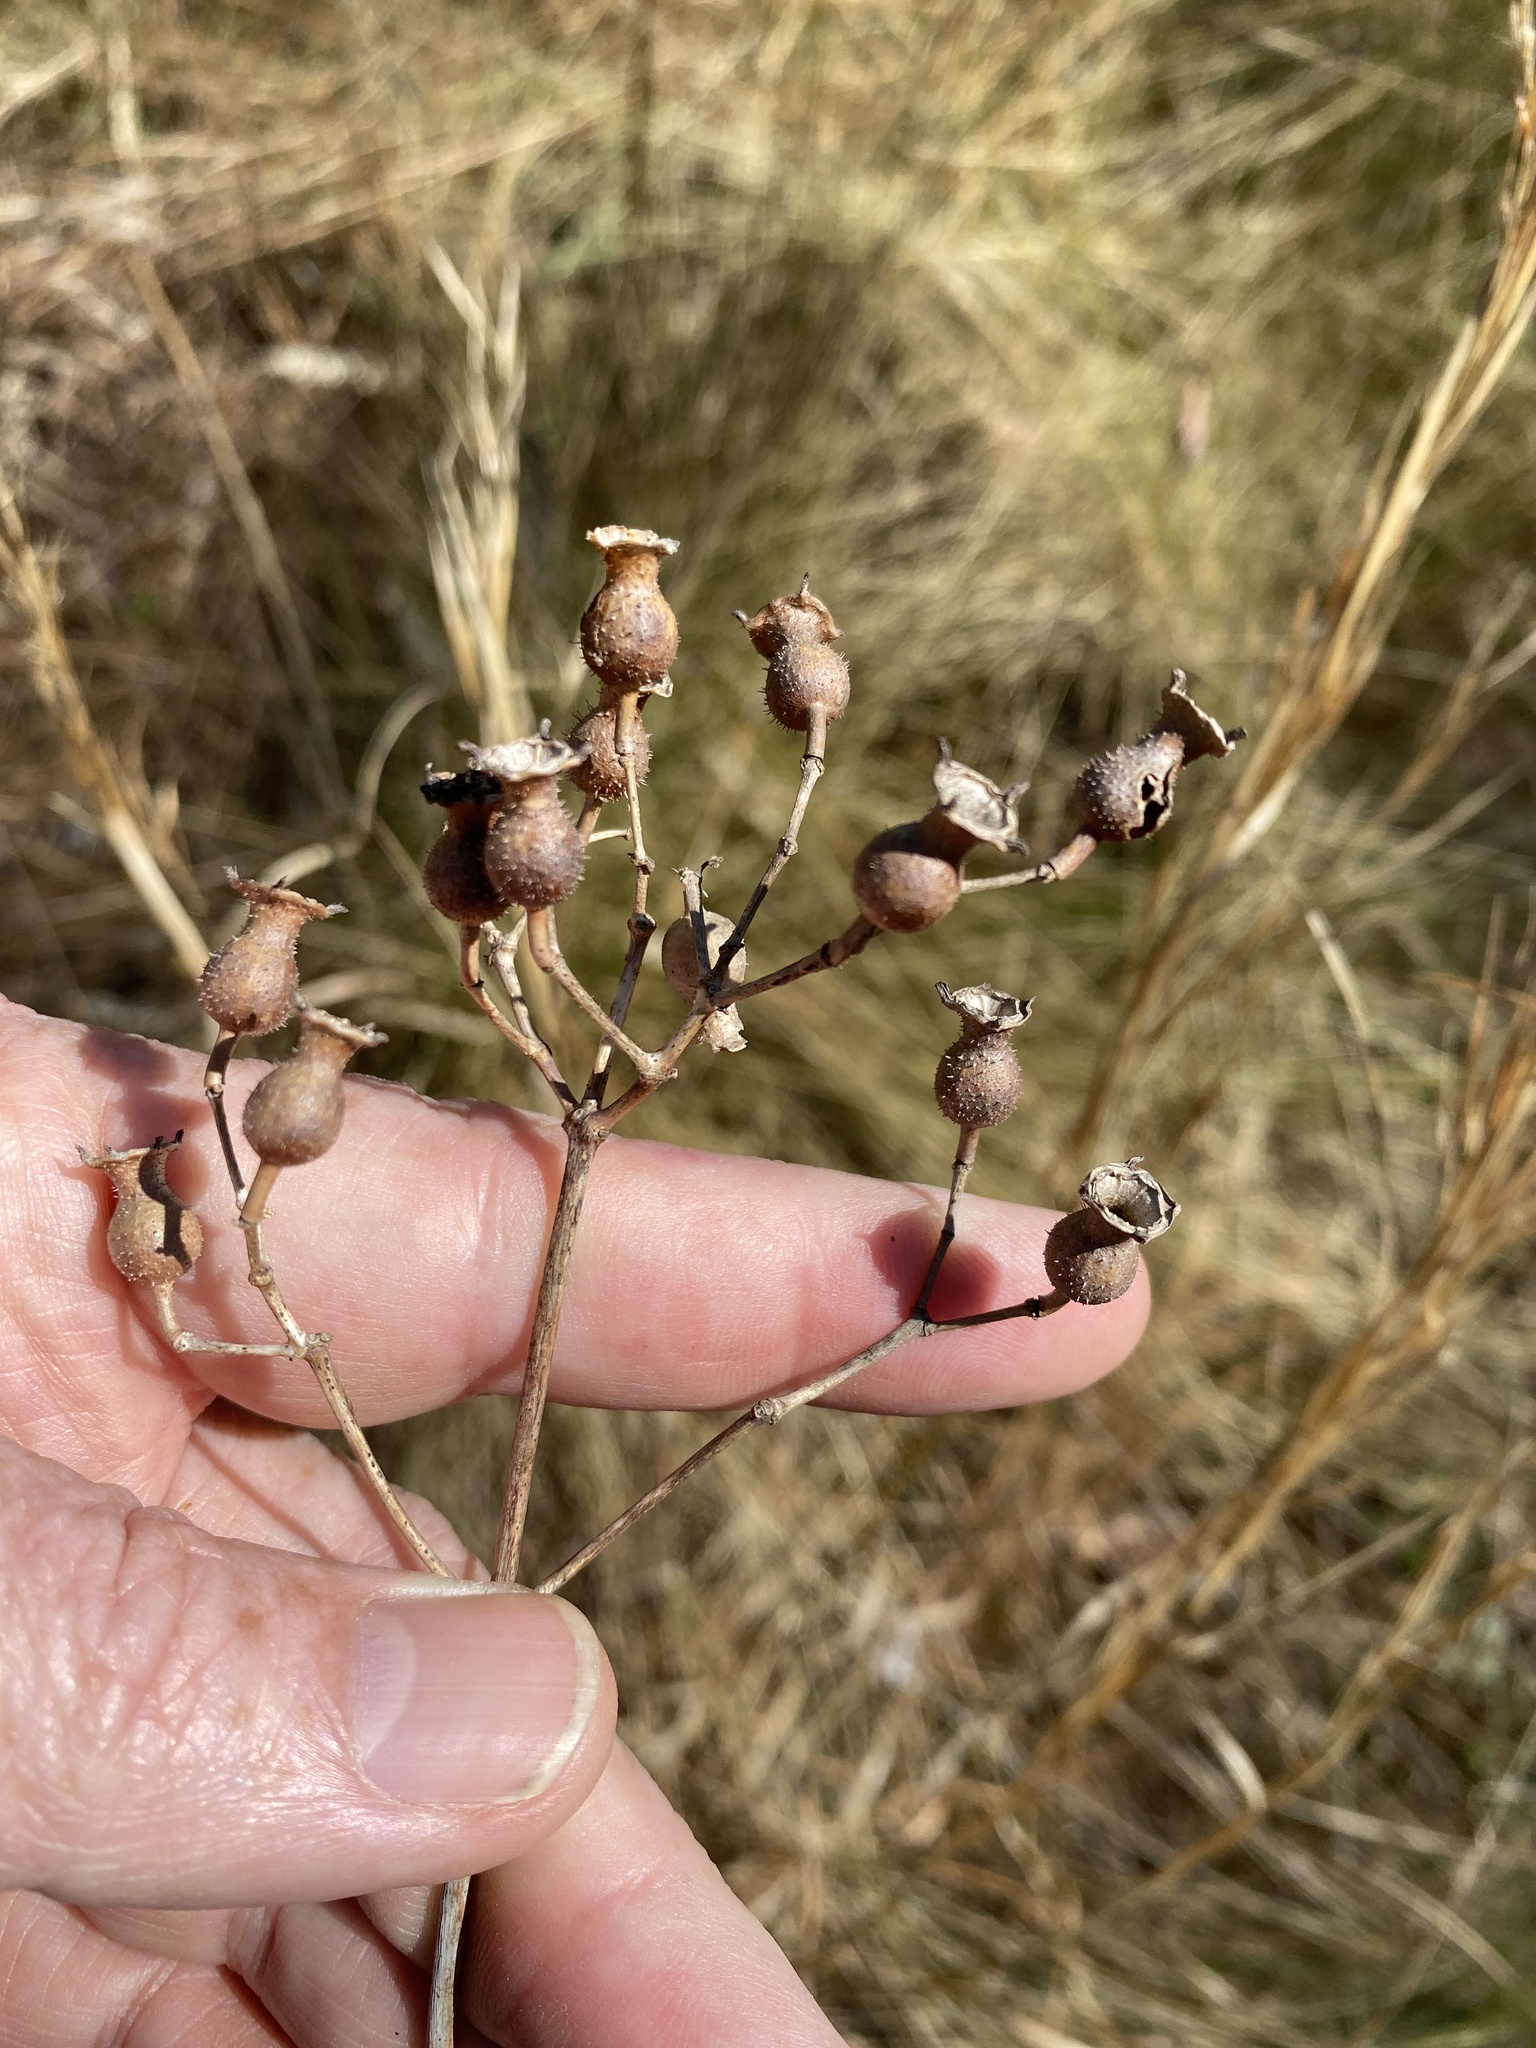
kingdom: Plantae
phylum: Tracheophyta
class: Magnoliopsida
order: Myrtales
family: Melastomataceae
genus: Rhexia
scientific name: Rhexia alifanus
